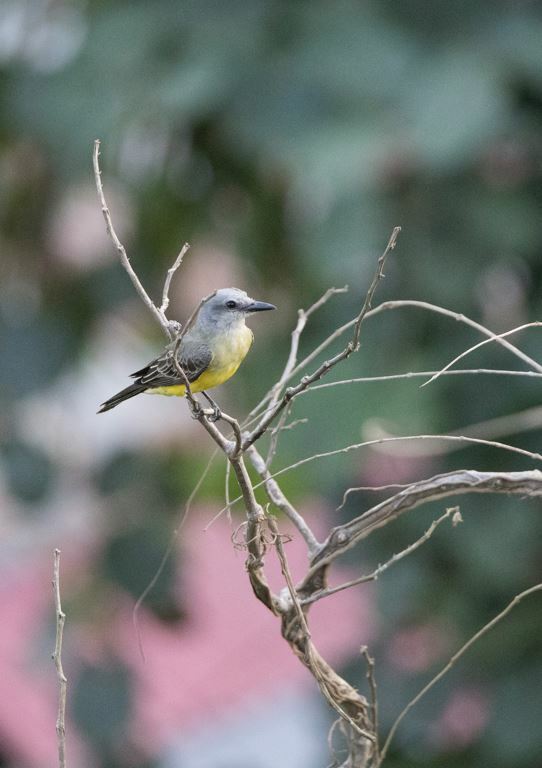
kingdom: Animalia
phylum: Chordata
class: Aves
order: Passeriformes
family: Tyrannidae
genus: Tyrannus
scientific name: Tyrannus melancholicus
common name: Tropical kingbird
